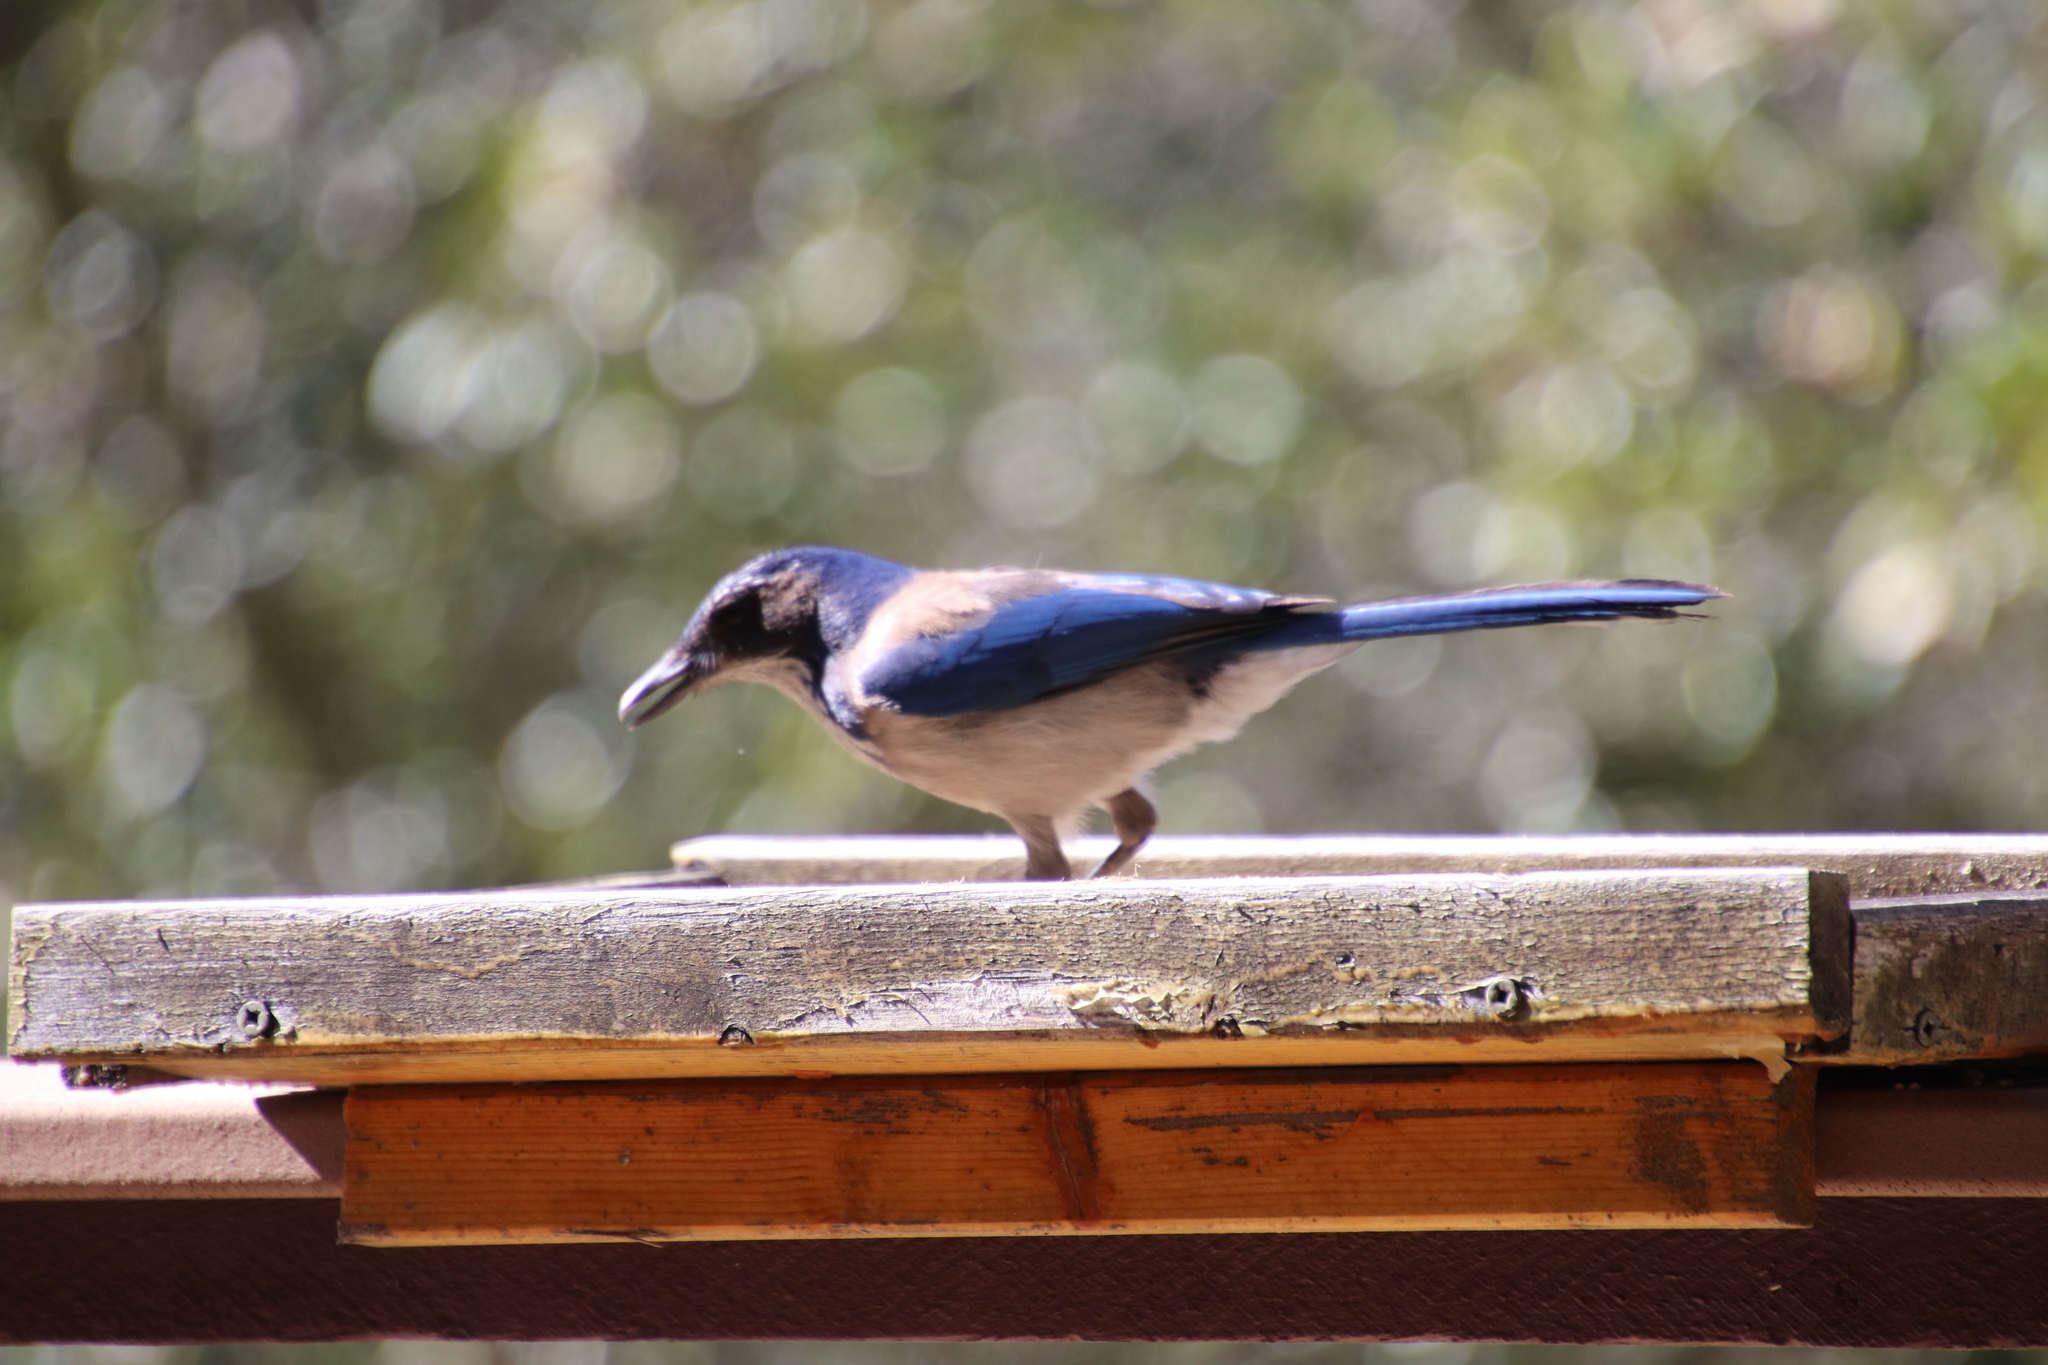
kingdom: Animalia
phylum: Chordata
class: Aves
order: Passeriformes
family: Corvidae
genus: Aphelocoma
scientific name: Aphelocoma californica
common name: California scrub-jay
